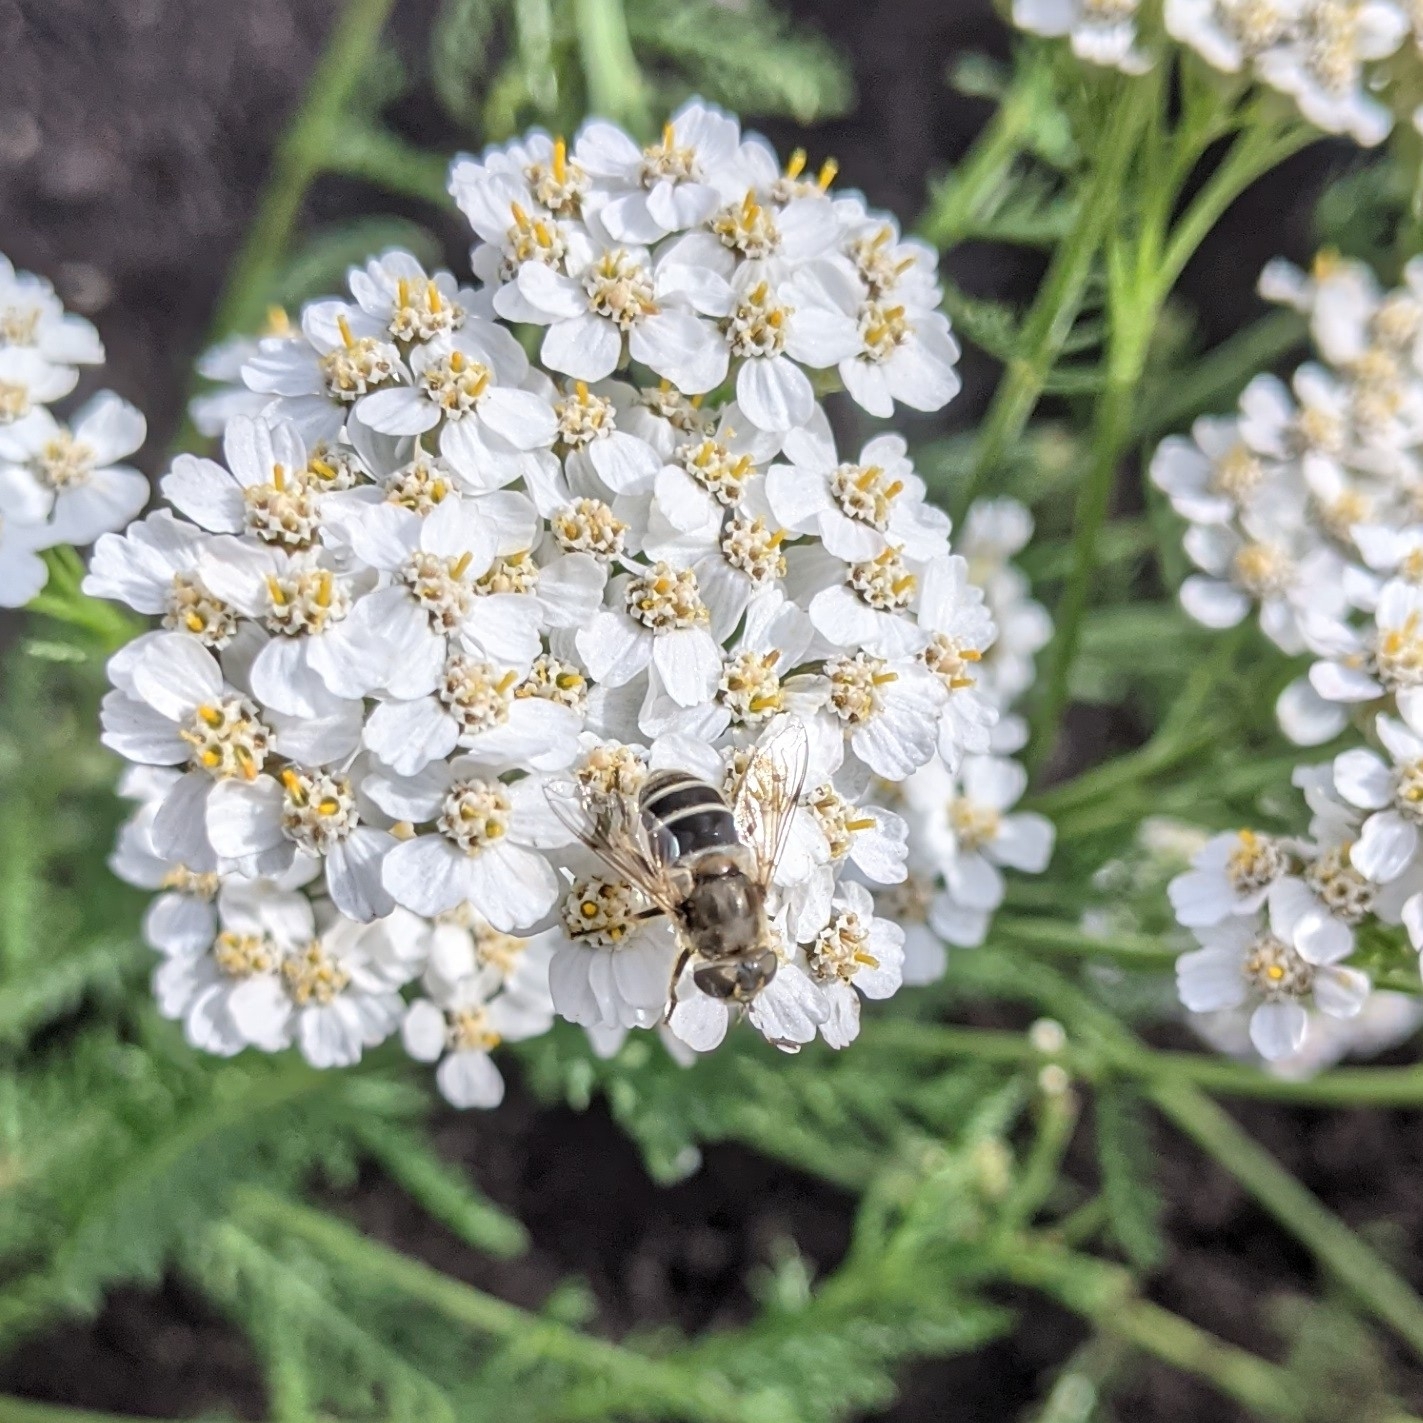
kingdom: Animalia
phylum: Arthropoda
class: Insecta
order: Diptera
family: Syrphidae
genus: Eristalis
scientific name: Eristalis arbustorum
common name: Hover fly
